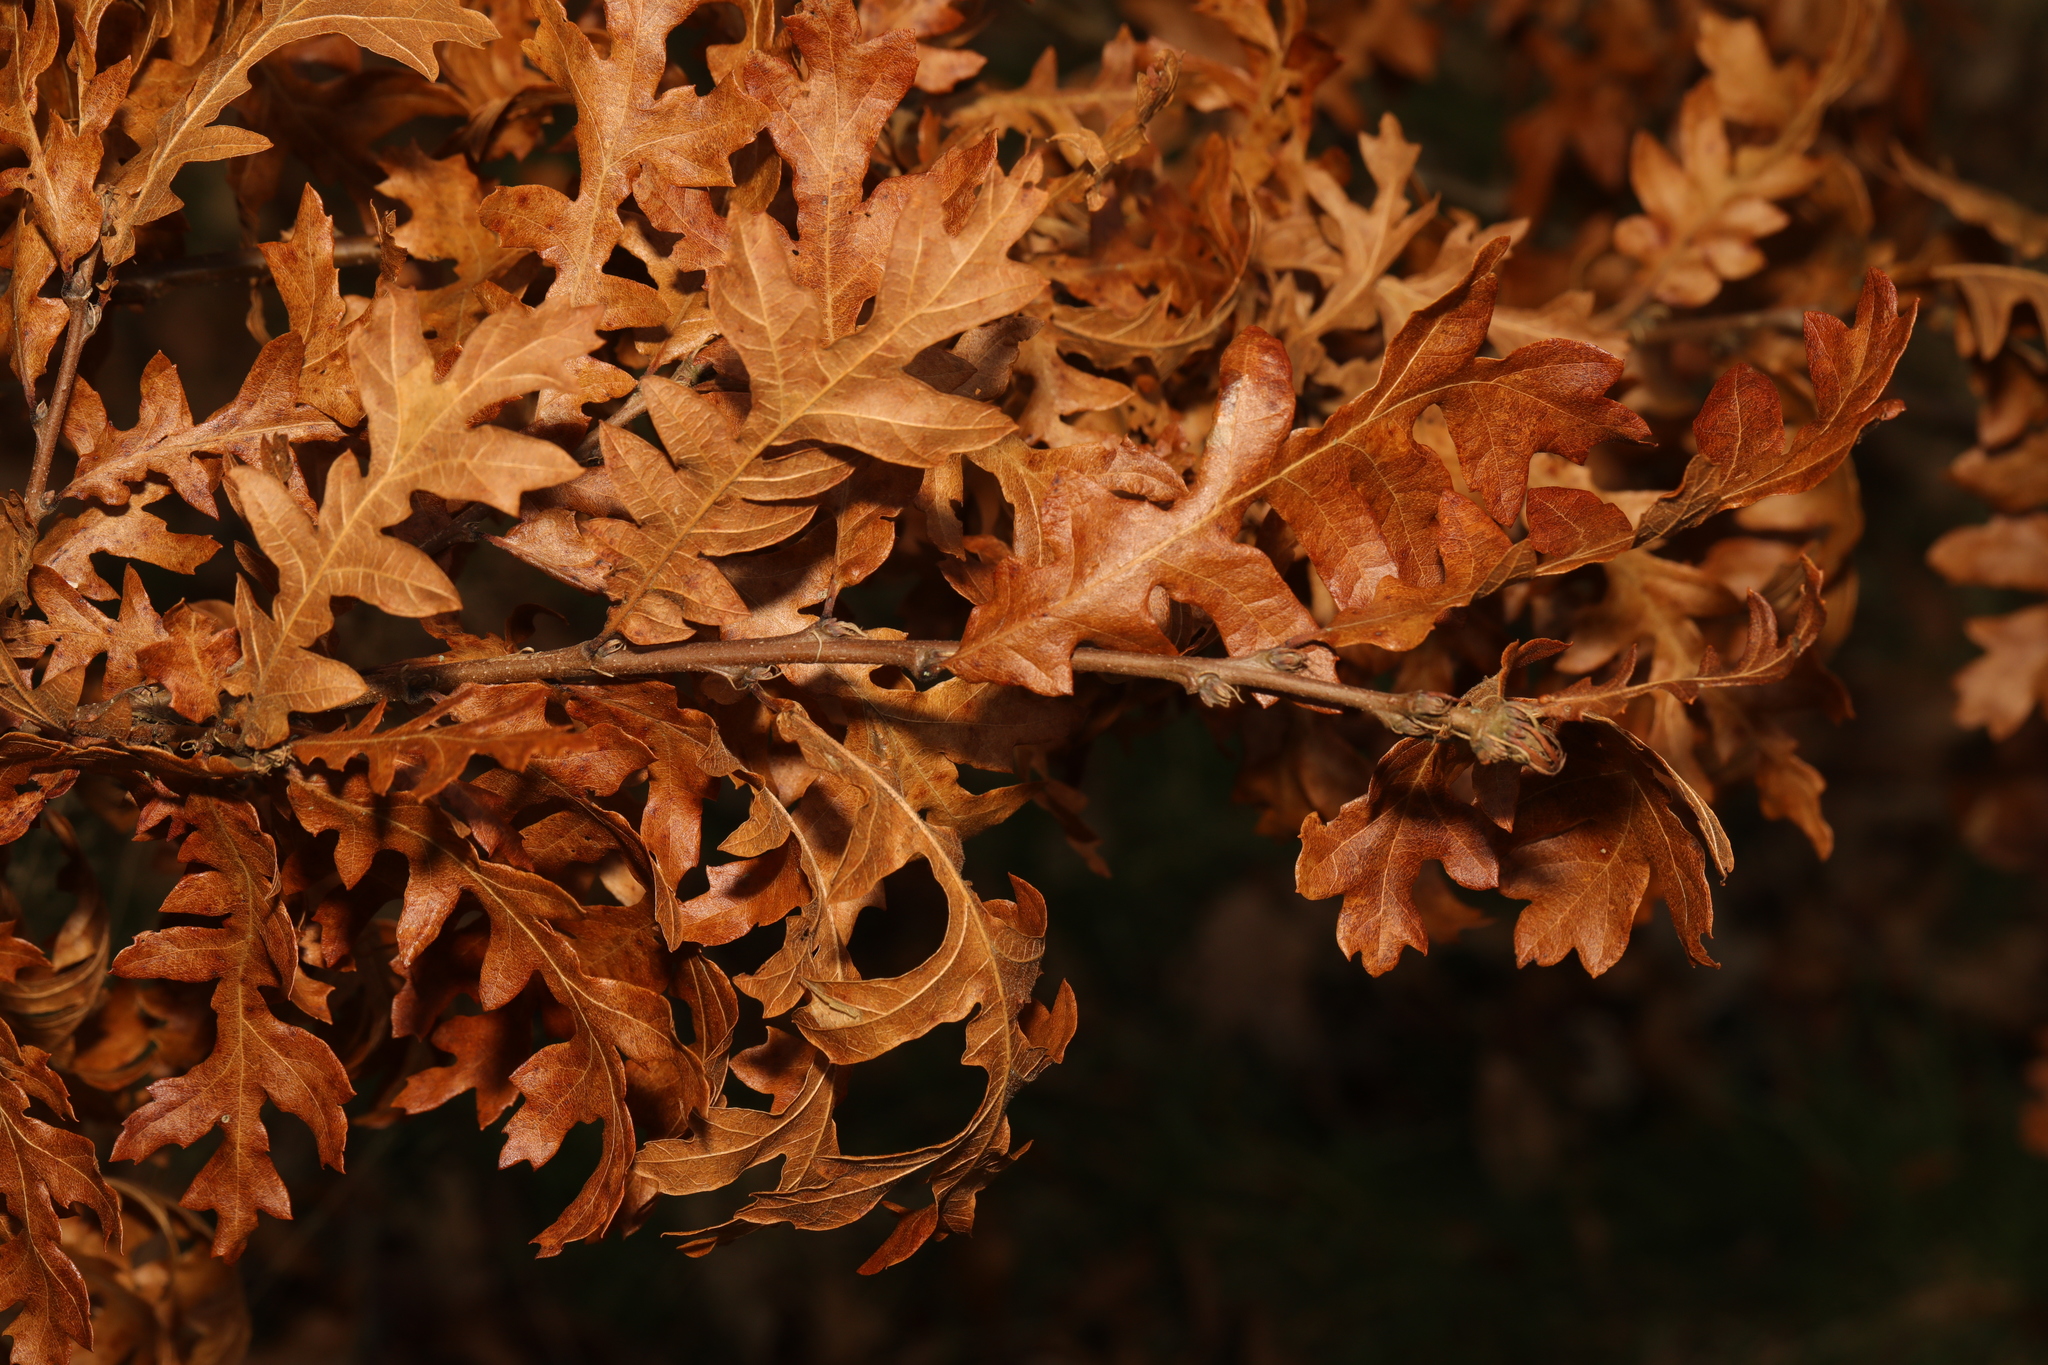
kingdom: Plantae
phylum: Tracheophyta
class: Magnoliopsida
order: Fagales
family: Fagaceae
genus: Quercus
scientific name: Quercus cerris
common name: Turkey oak
